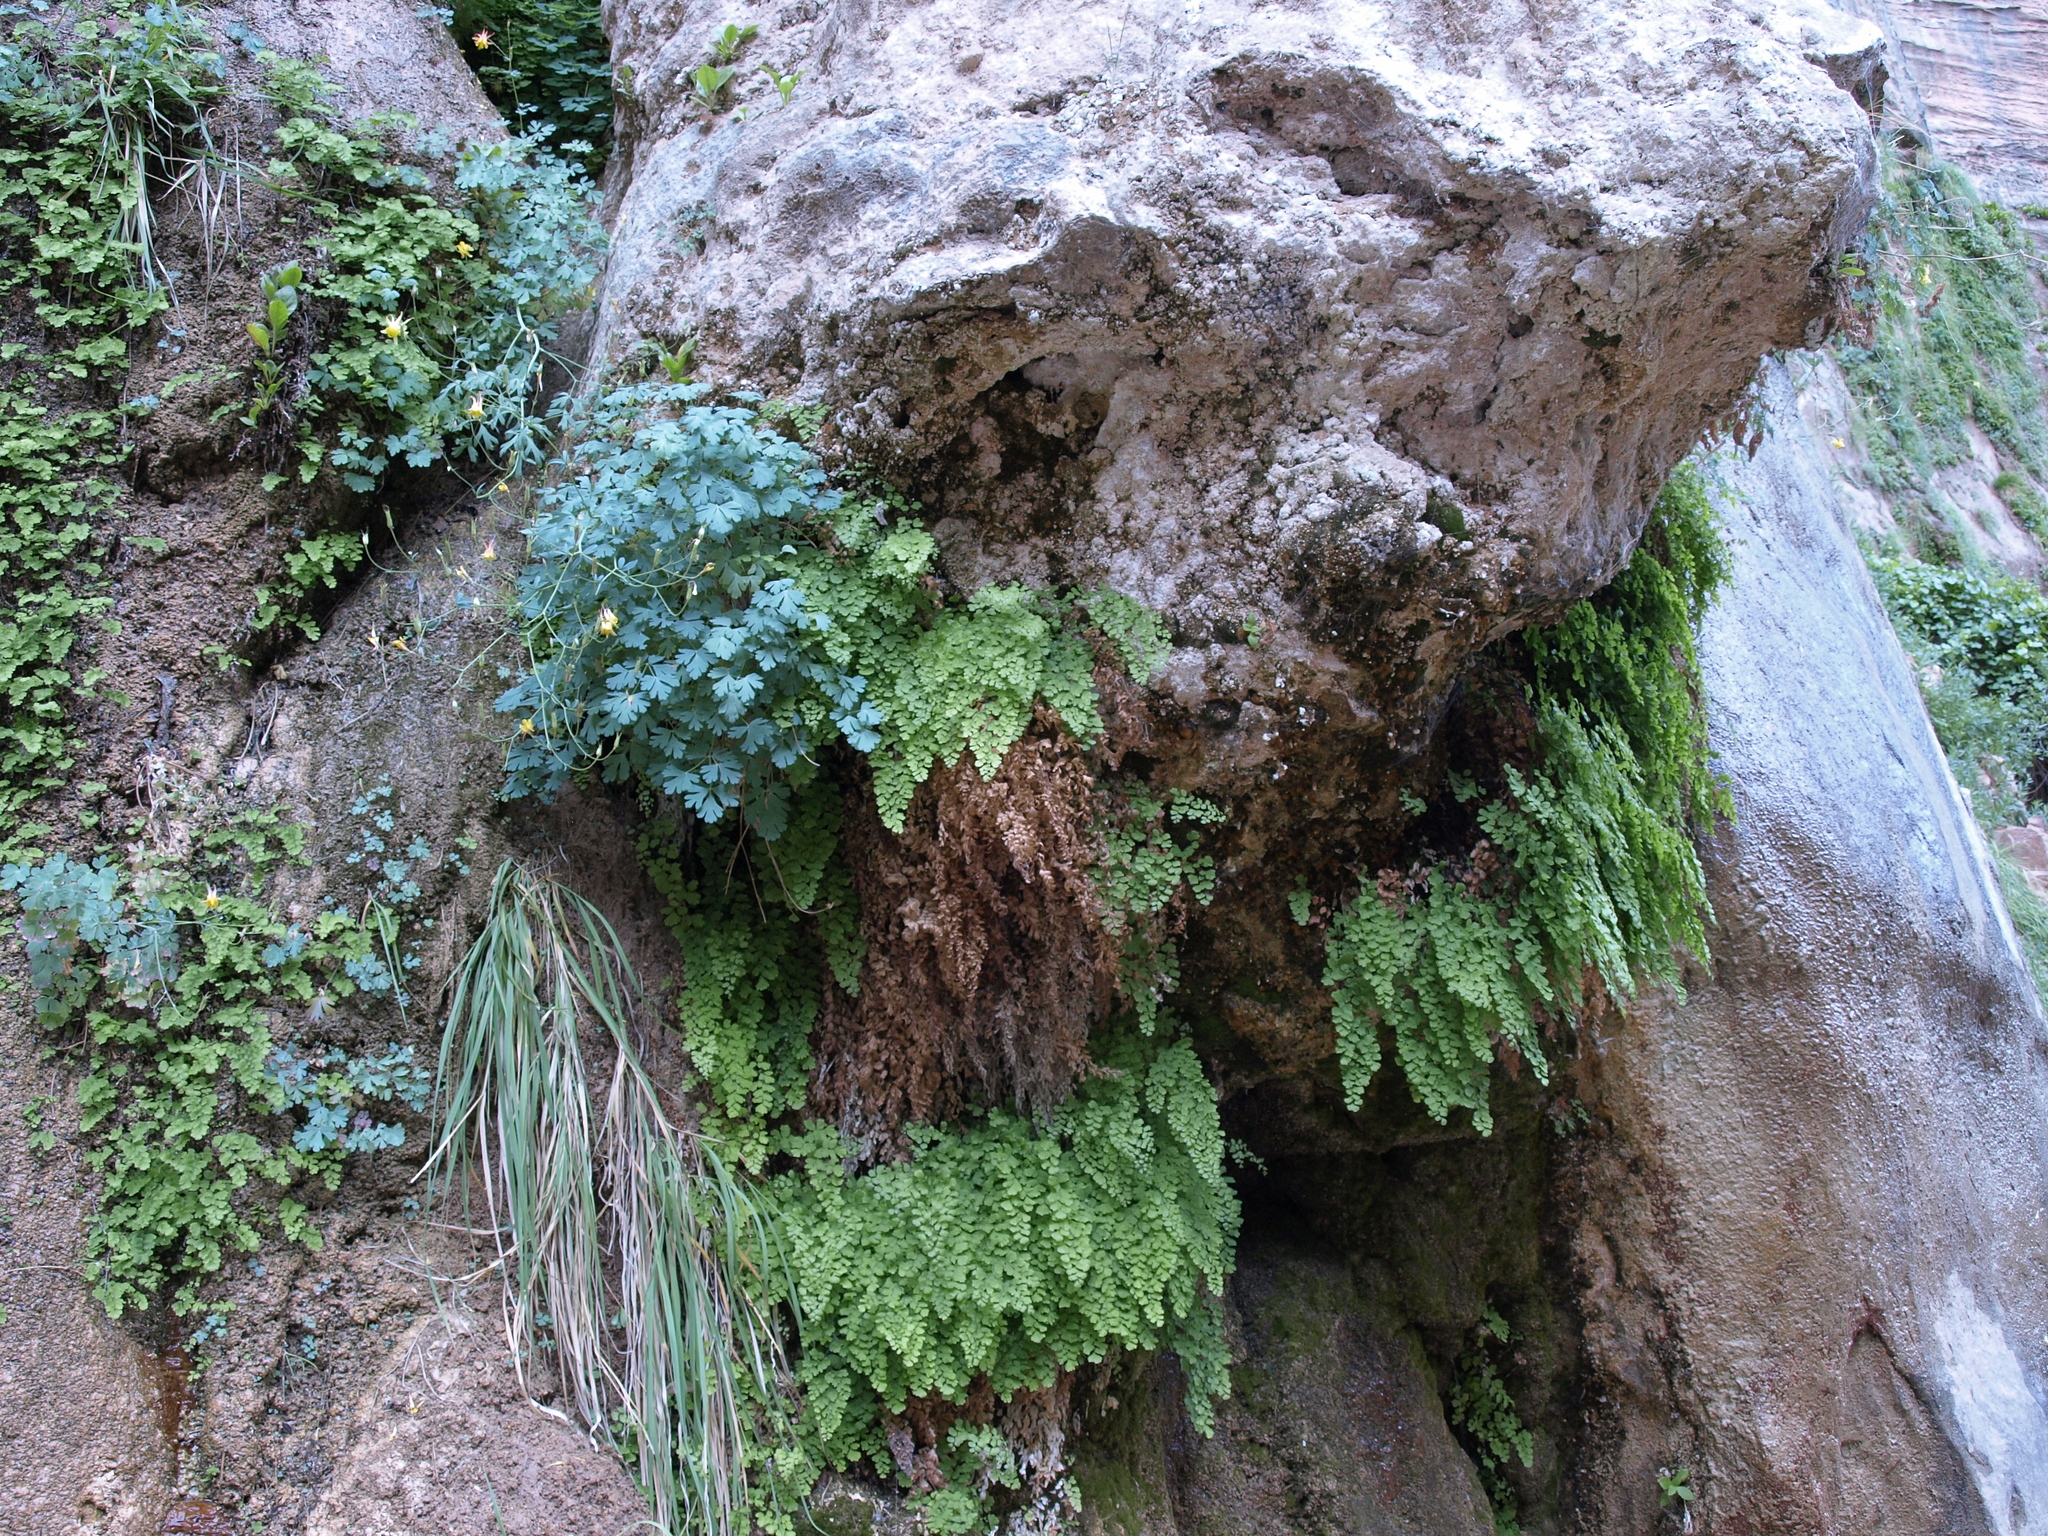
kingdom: Plantae
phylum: Tracheophyta
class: Polypodiopsida
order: Polypodiales
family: Pteridaceae
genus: Adiantum
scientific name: Adiantum capillus-veneris
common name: Maidenhair fern
